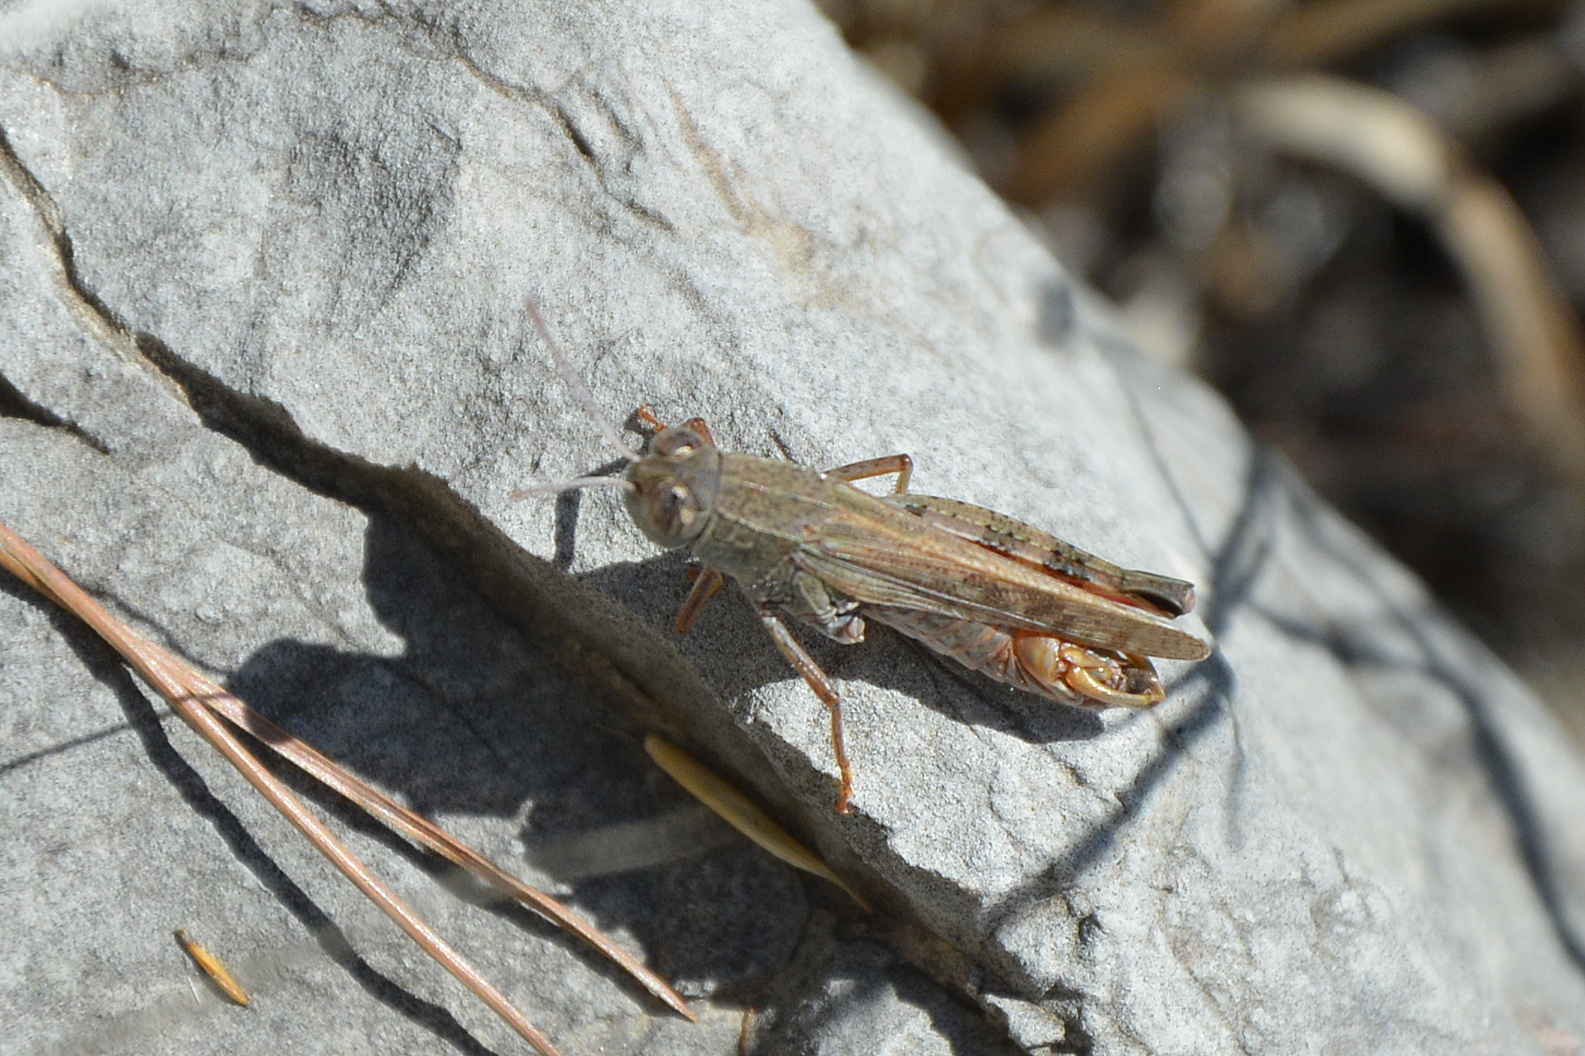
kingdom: Animalia
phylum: Arthropoda
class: Insecta
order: Orthoptera
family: Acrididae
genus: Calliptamus
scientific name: Calliptamus italicus
